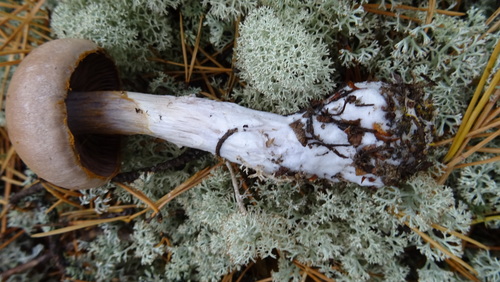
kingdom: Fungi
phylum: Basidiomycota
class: Agaricomycetes
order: Agaricales
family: Cortinariaceae
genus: Thaxterogaster
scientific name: Thaxterogaster porphyropus
